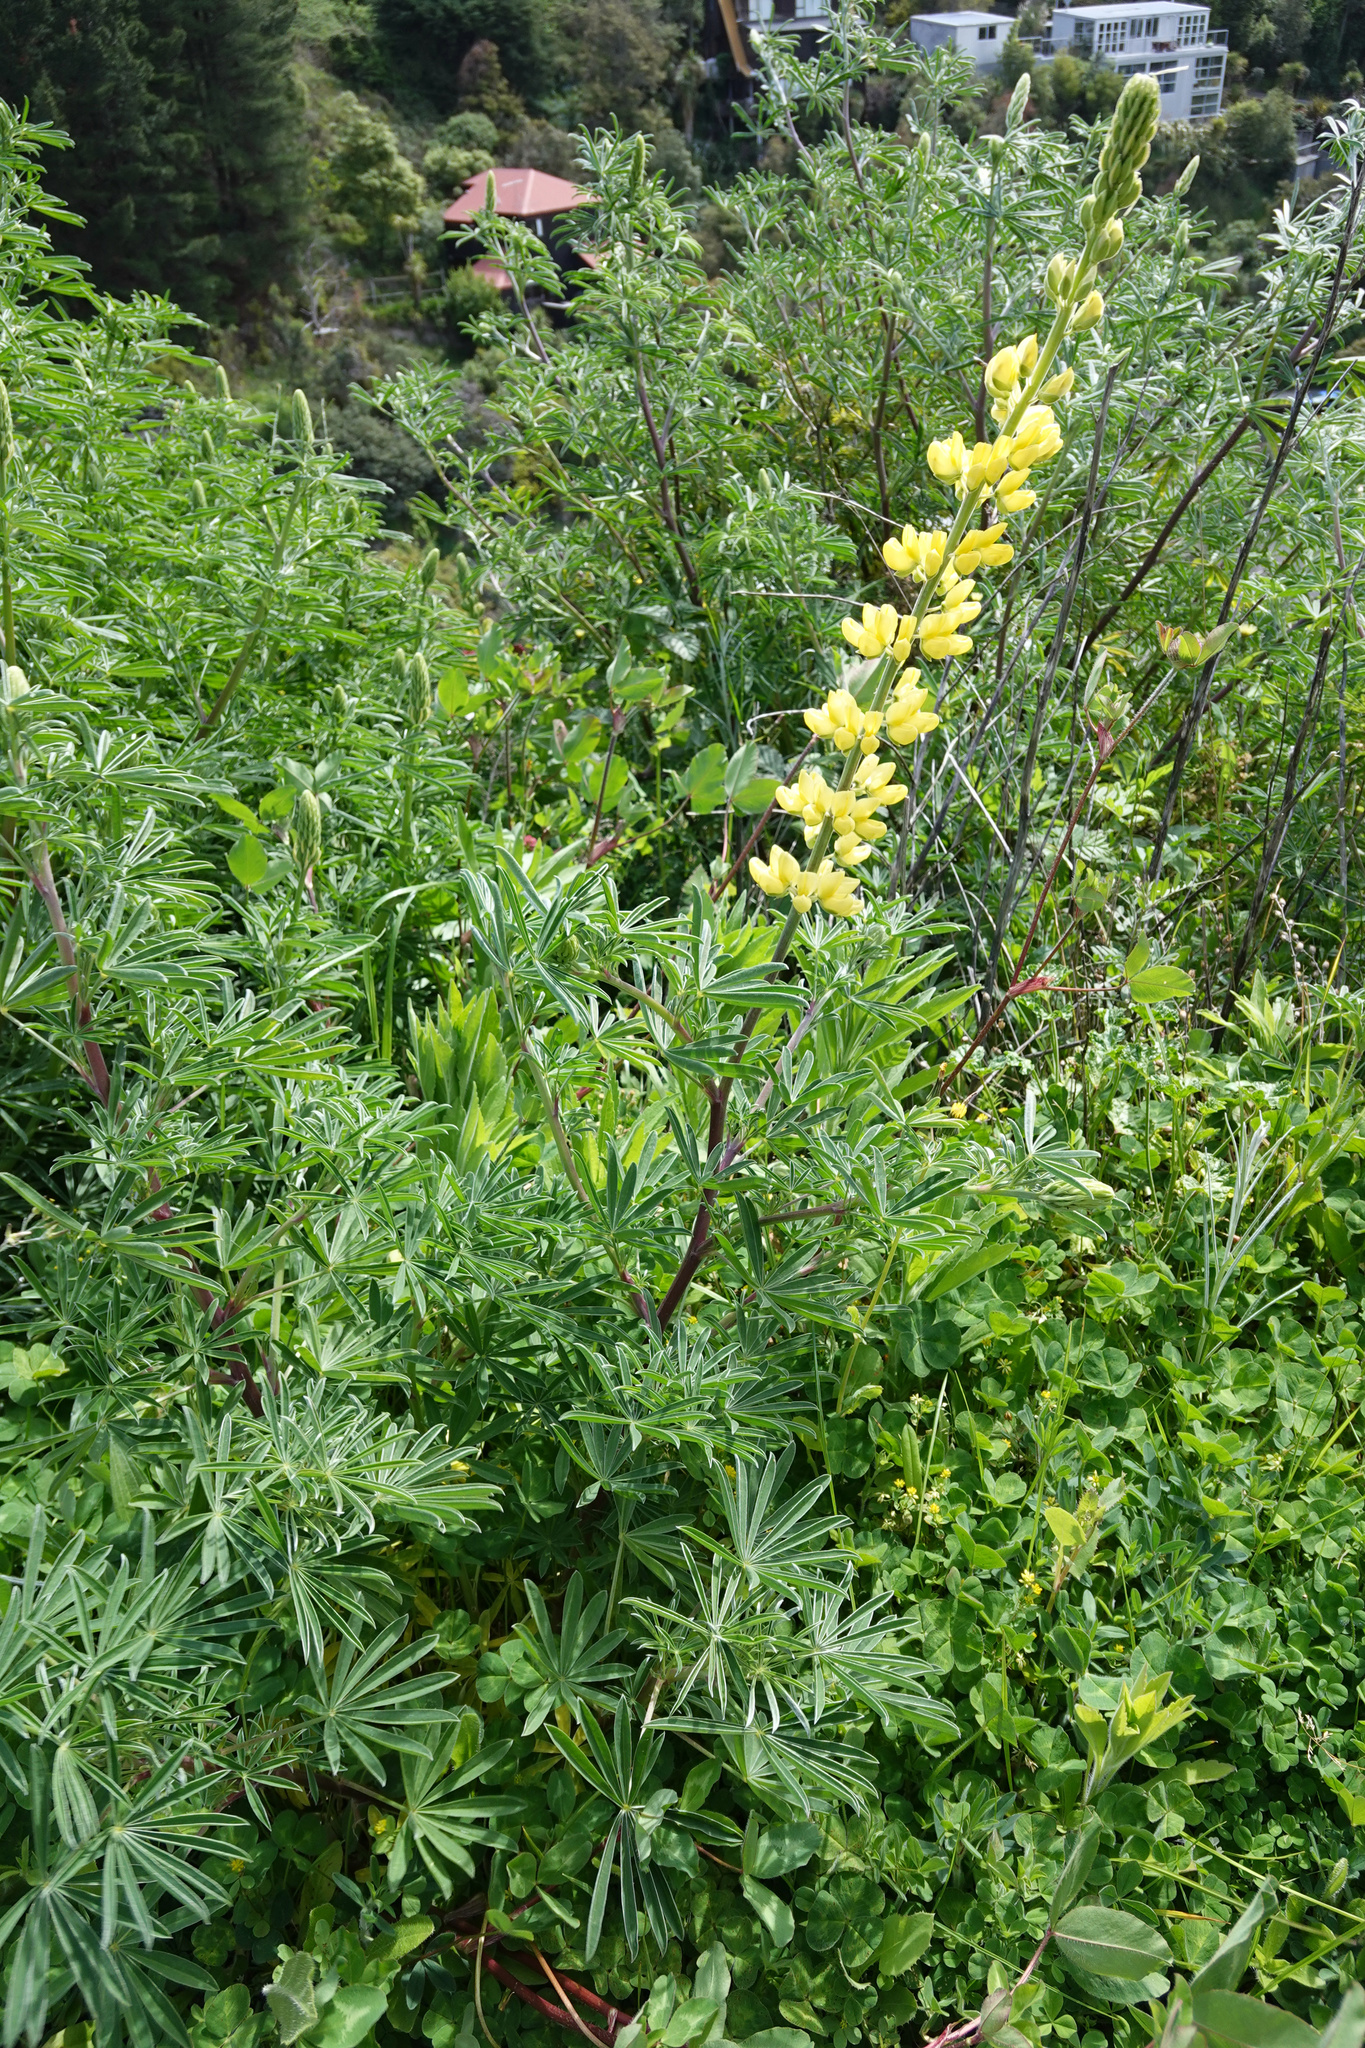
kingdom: Plantae
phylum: Tracheophyta
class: Magnoliopsida
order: Fabales
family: Fabaceae
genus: Lupinus
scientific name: Lupinus arboreus
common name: Yellow bush lupine
